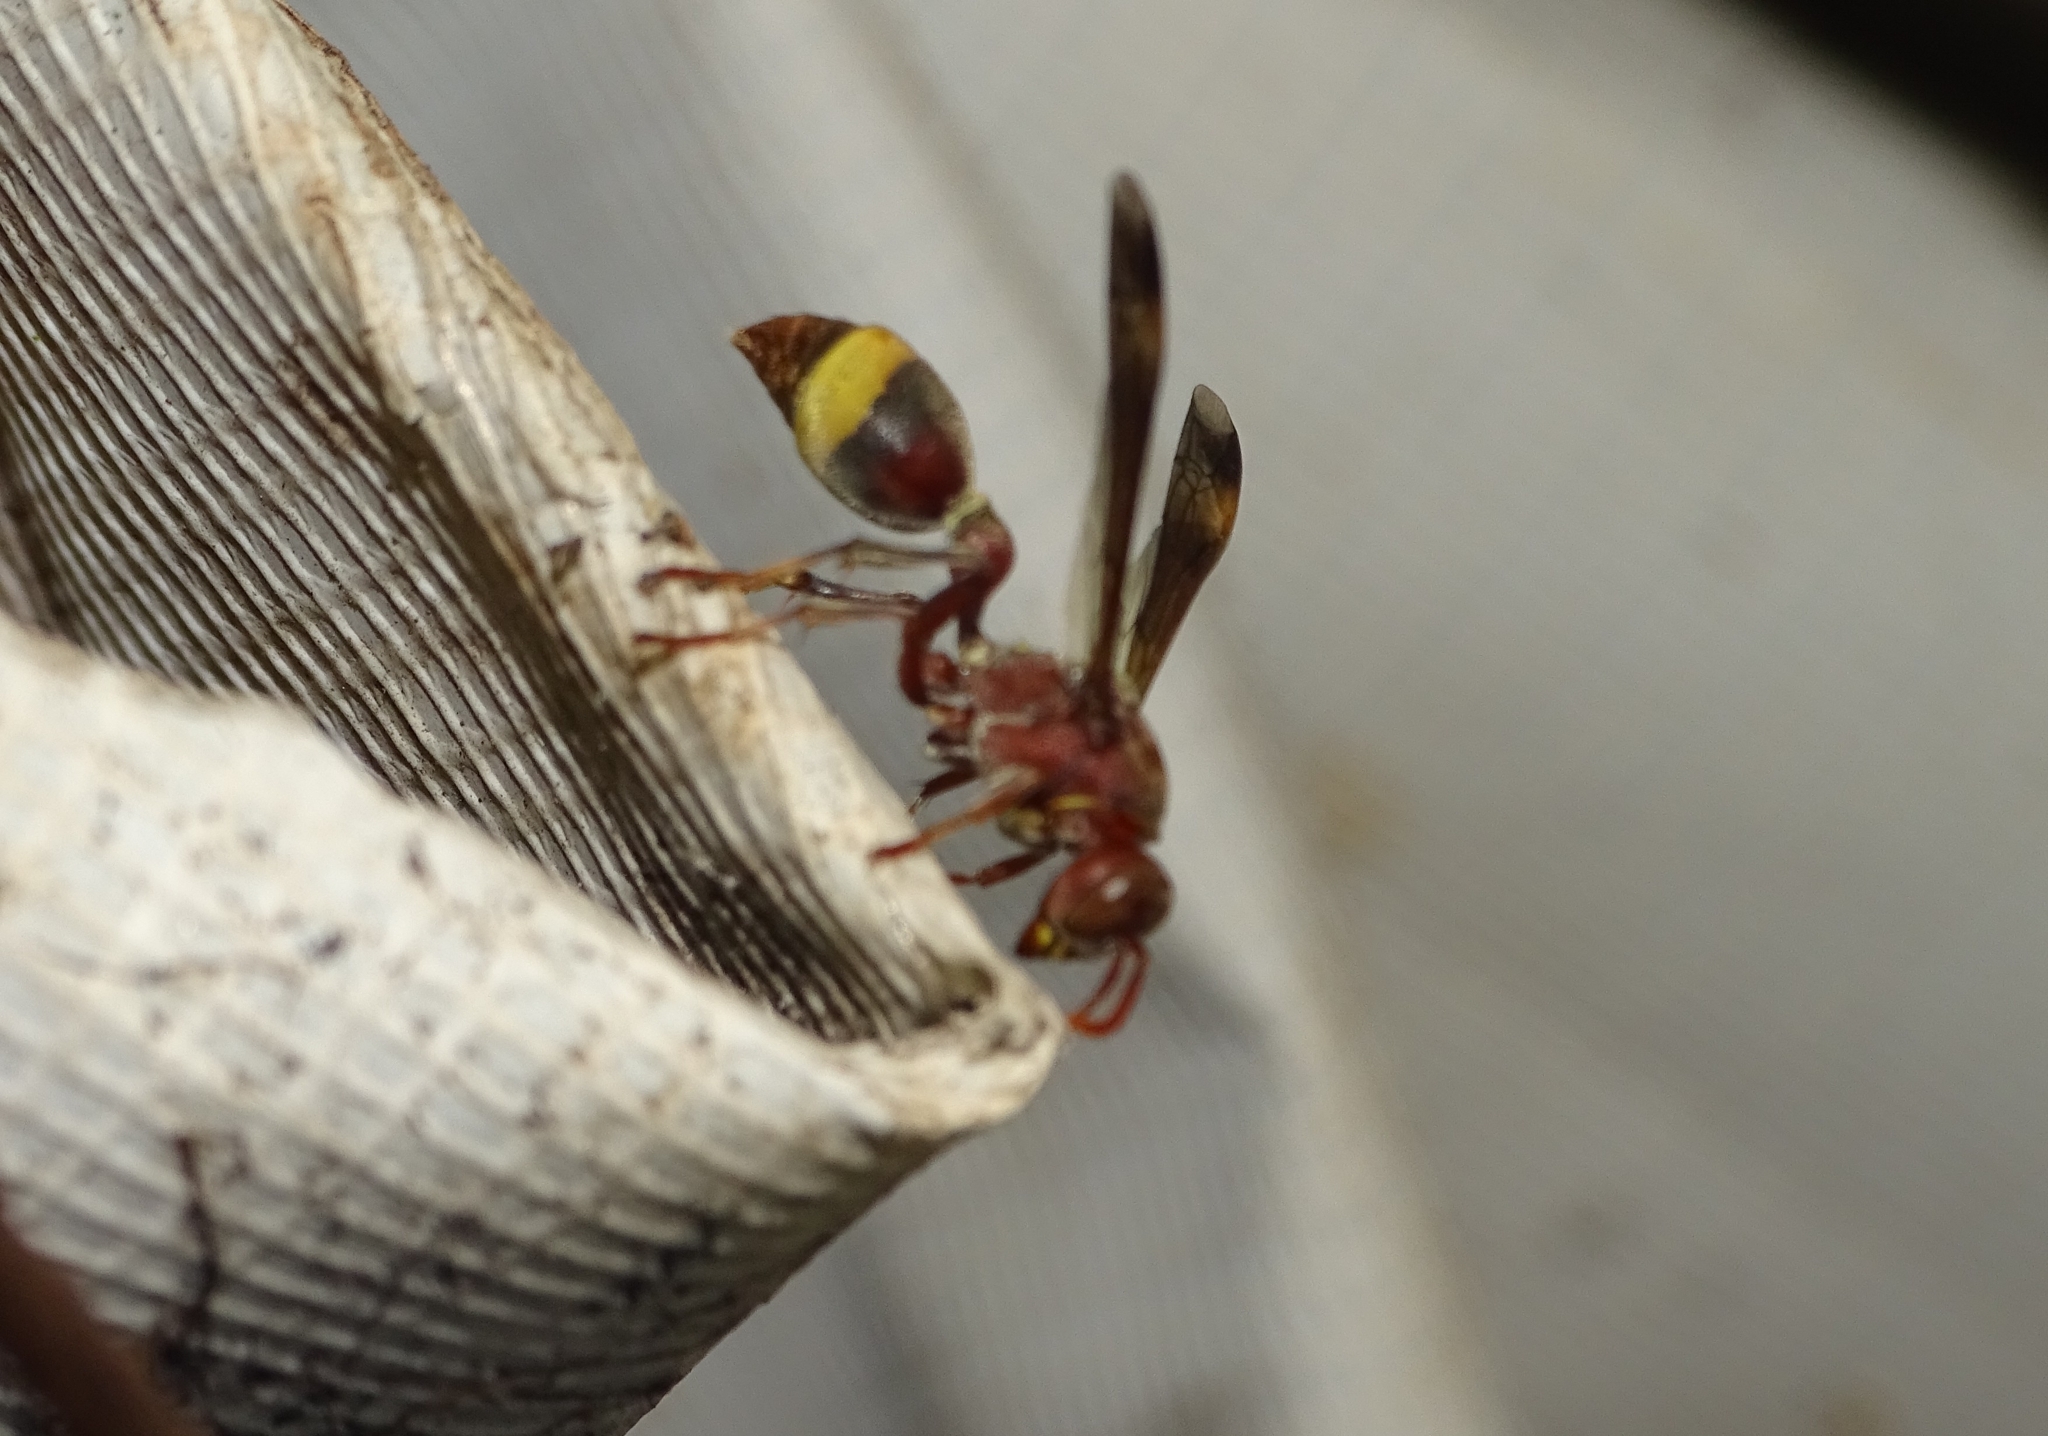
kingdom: Animalia
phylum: Arthropoda
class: Insecta
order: Hymenoptera
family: Vespidae
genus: Ropalidia
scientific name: Ropalidia
